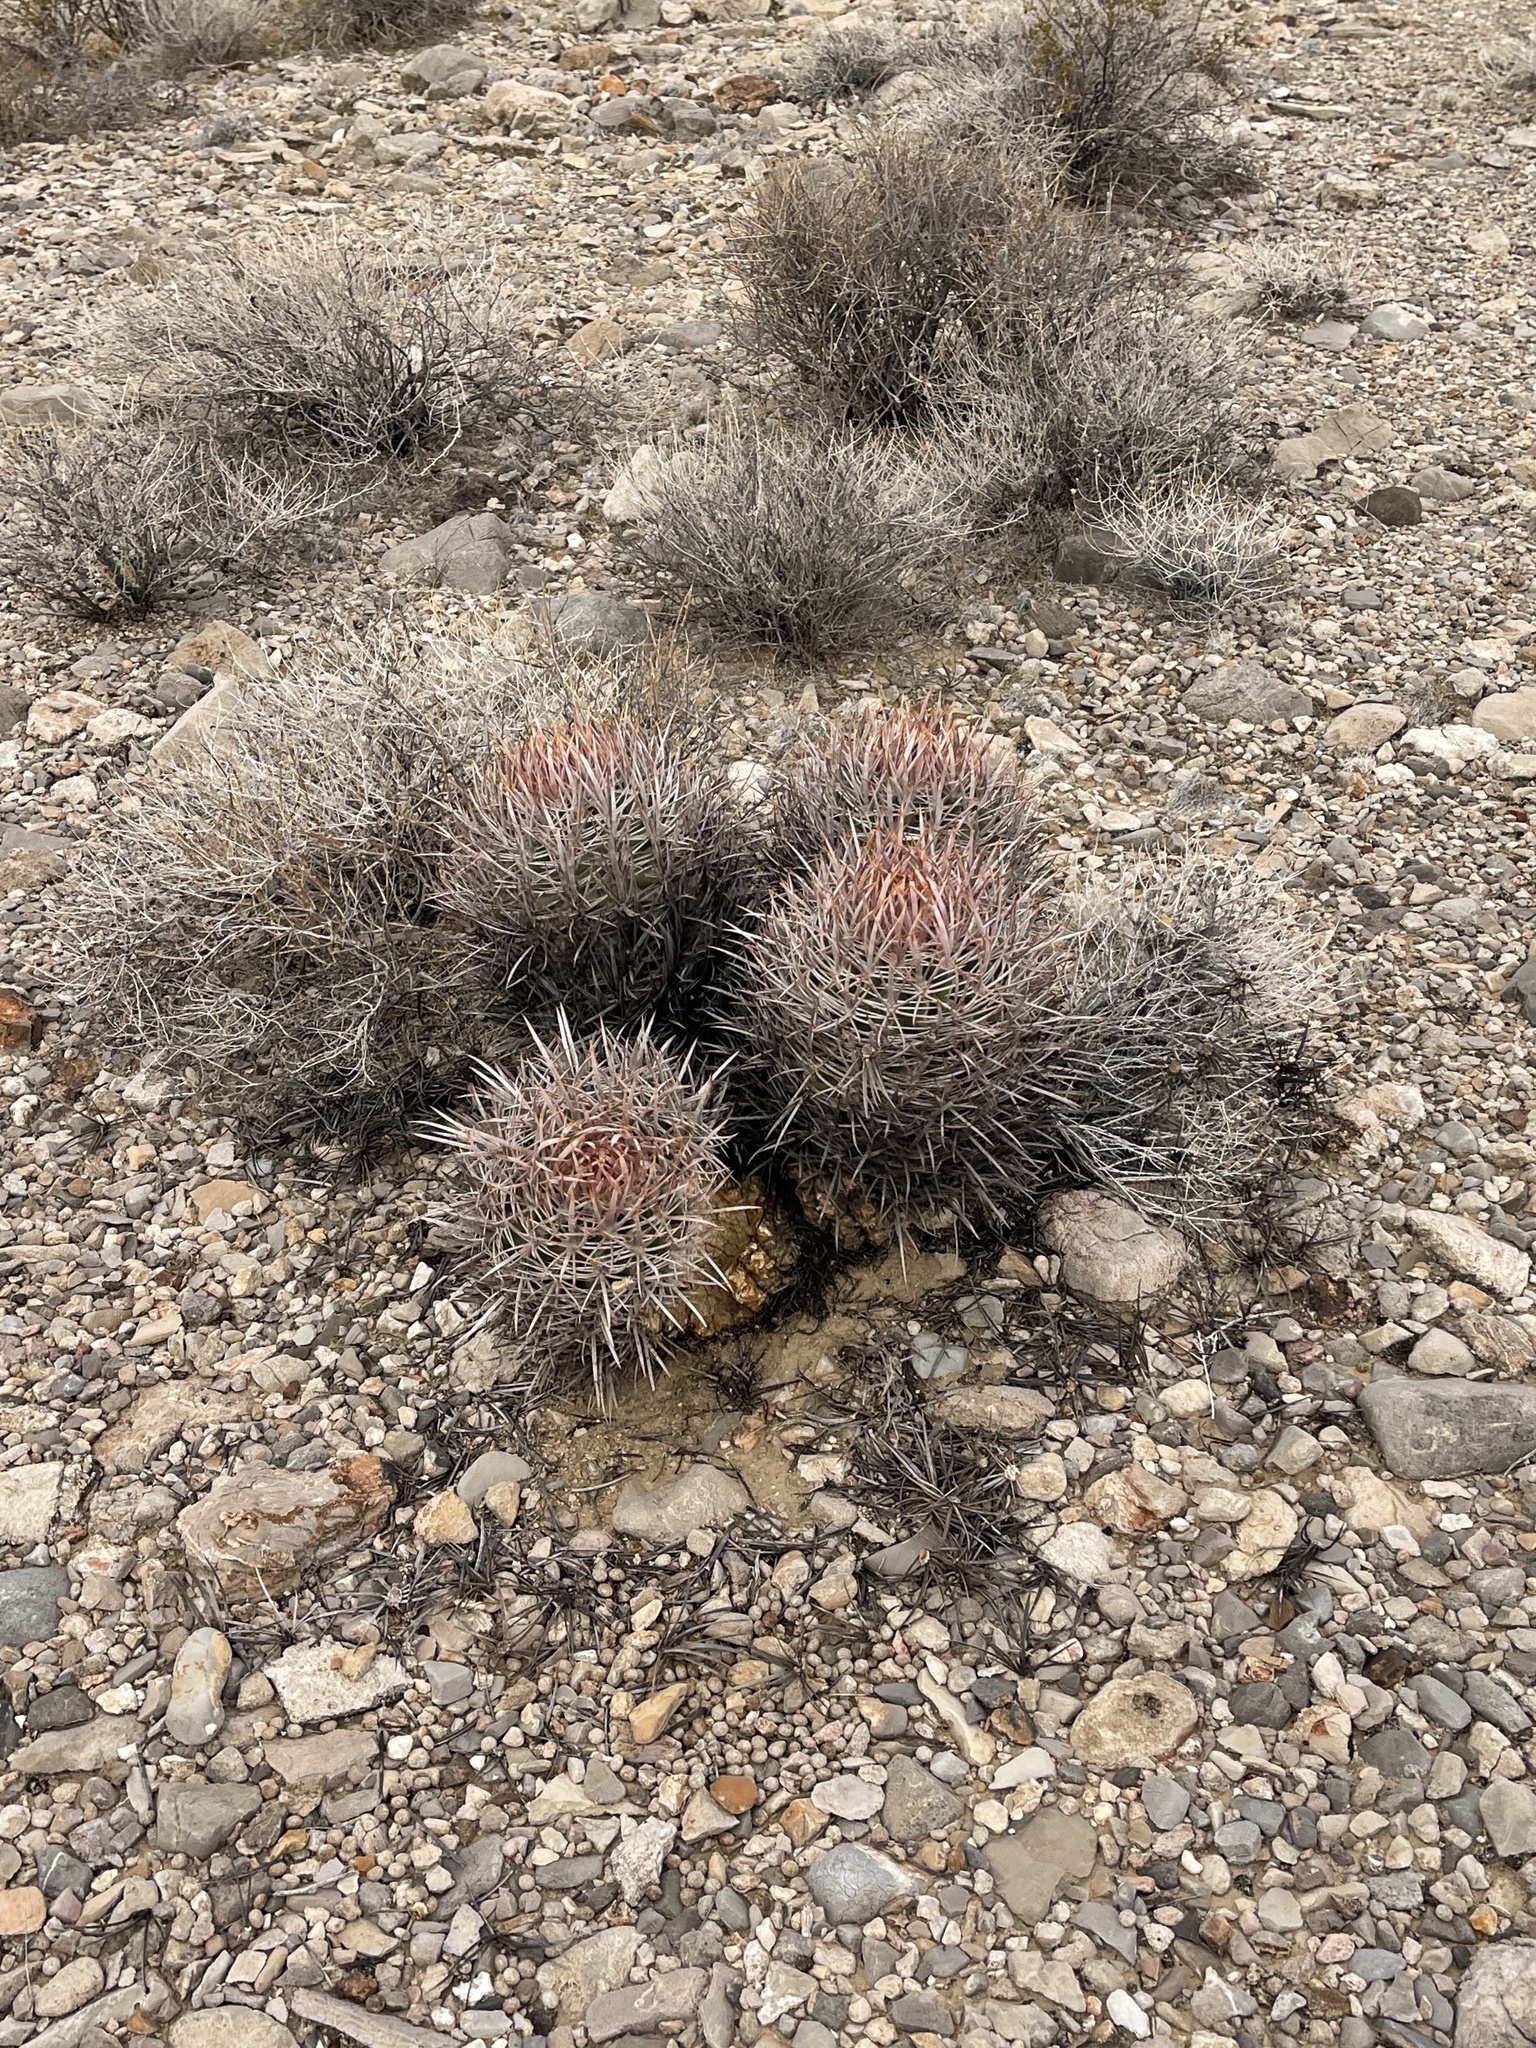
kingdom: Plantae
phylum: Tracheophyta
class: Magnoliopsida
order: Caryophyllales
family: Cactaceae
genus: Echinocactus
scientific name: Echinocactus polycephalus
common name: Cottontop cactus
